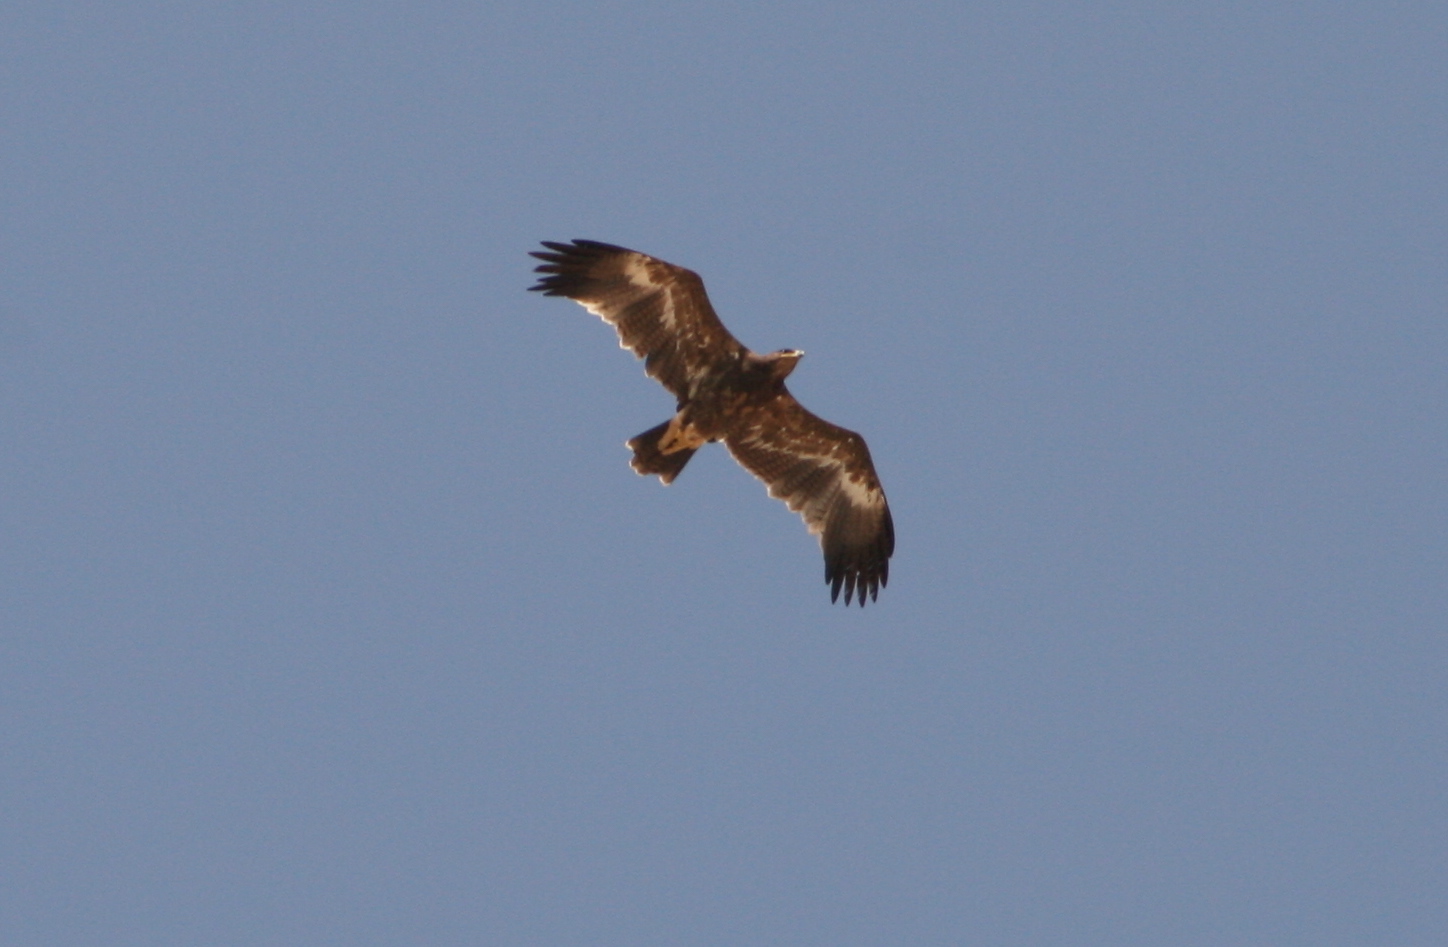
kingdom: Animalia
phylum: Chordata
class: Aves
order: Accipitriformes
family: Accipitridae
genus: Aquila
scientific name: Aquila nipalensis
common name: Steppe eagle
